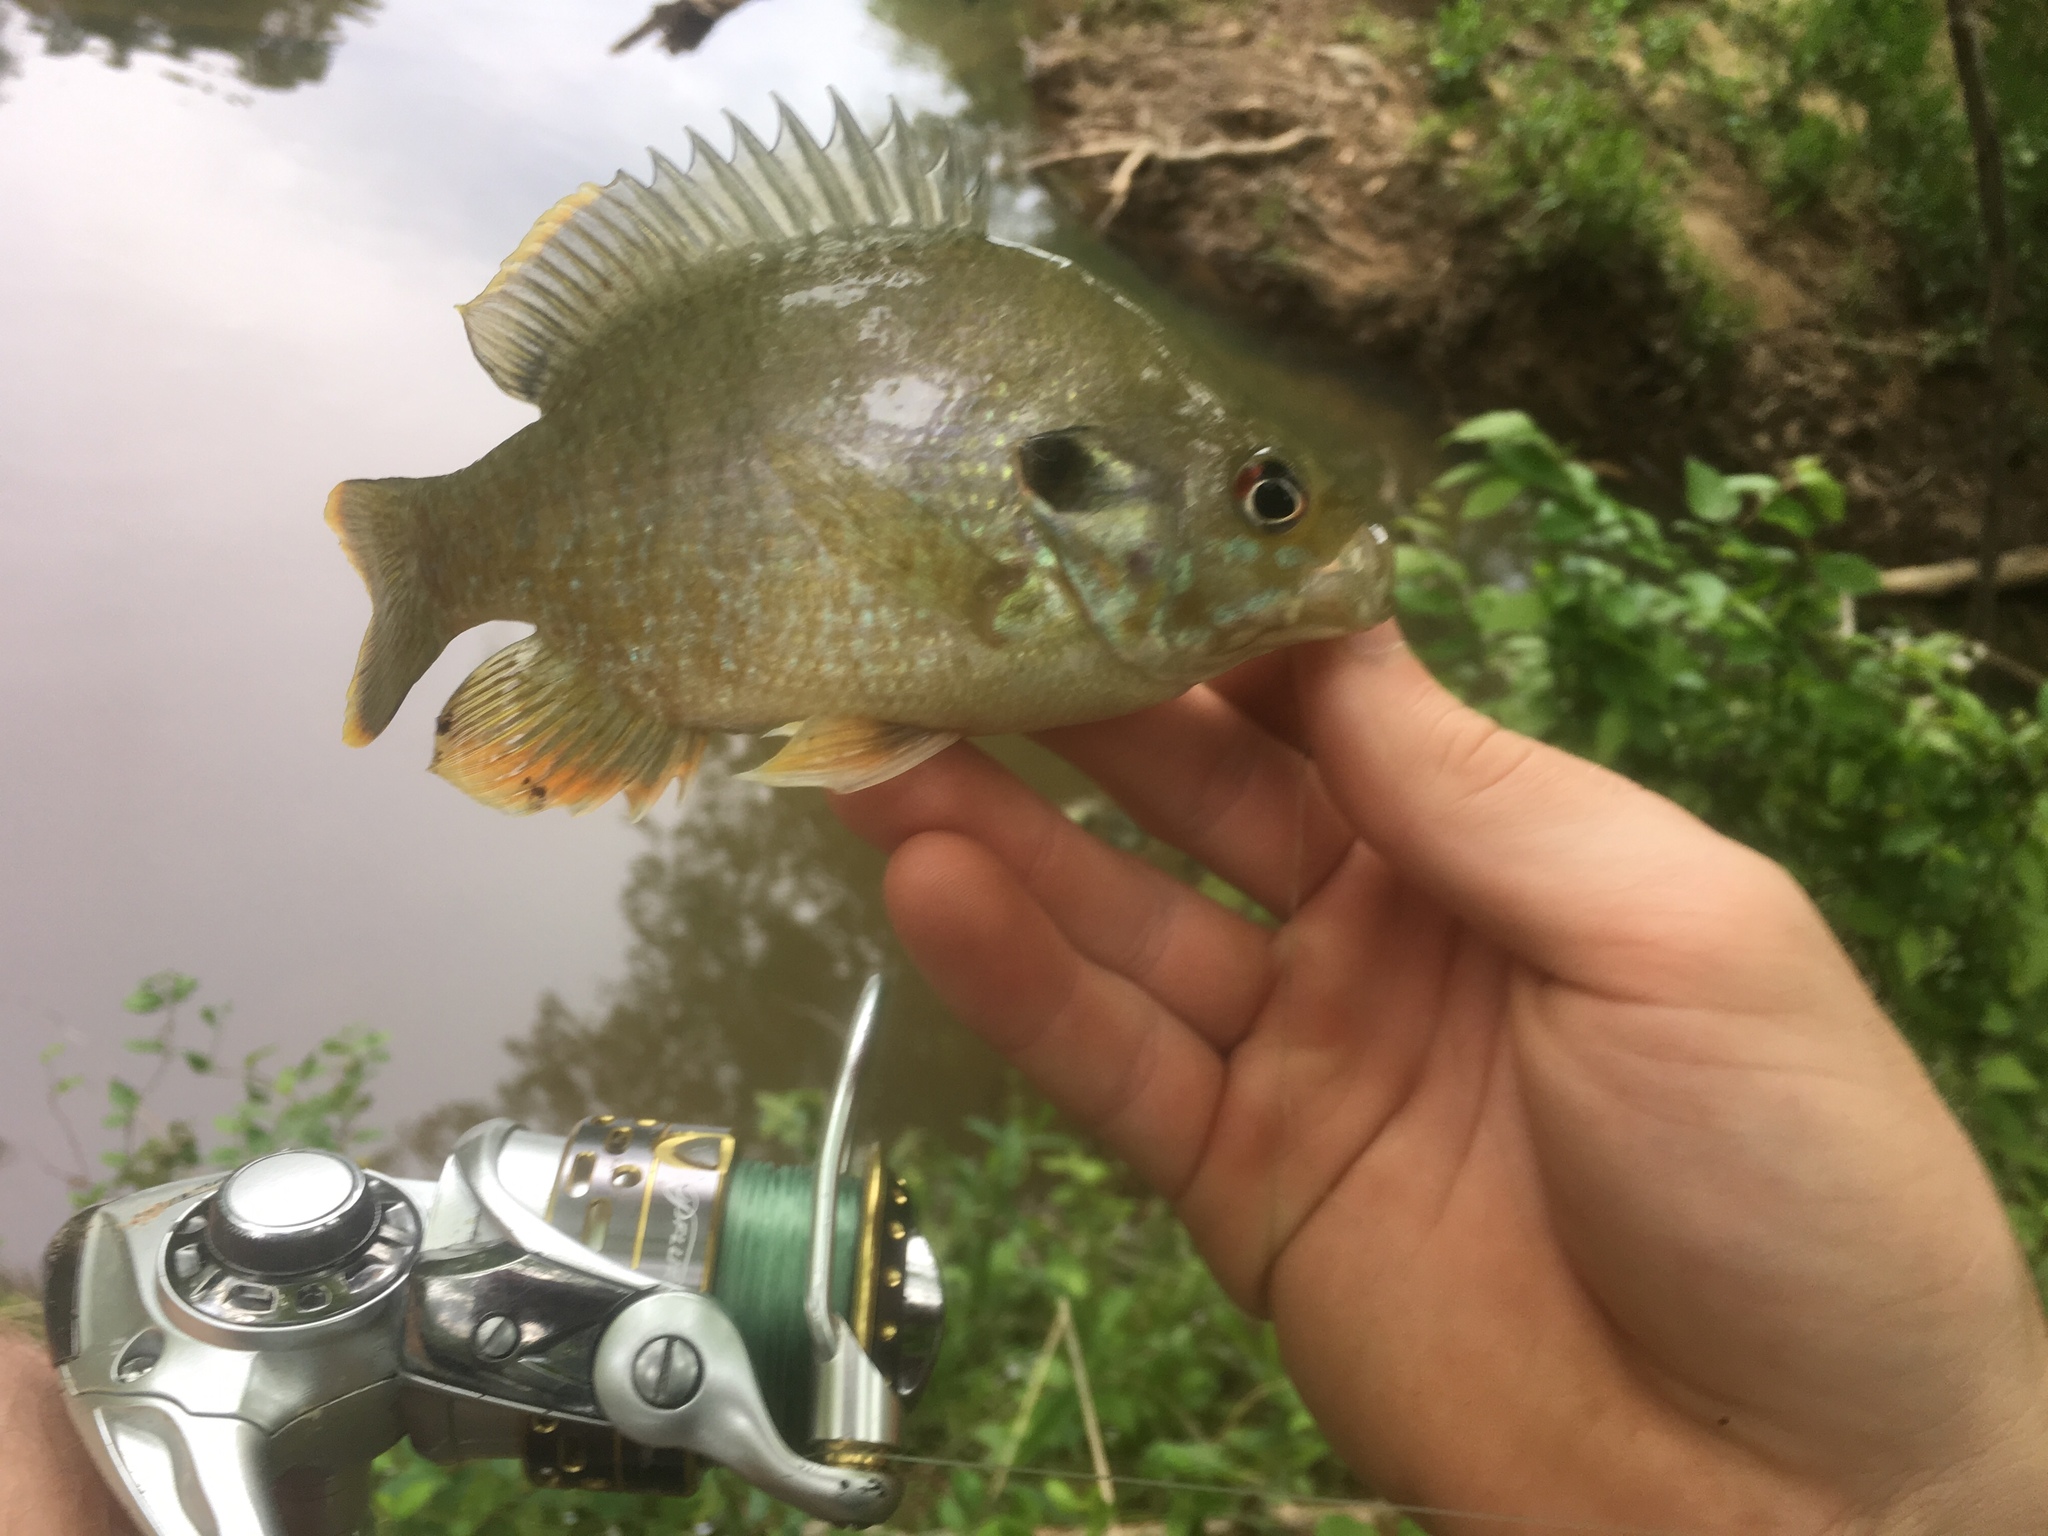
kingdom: Animalia
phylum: Chordata
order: Perciformes
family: Centrarchidae
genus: Lepomis
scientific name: Lepomis
